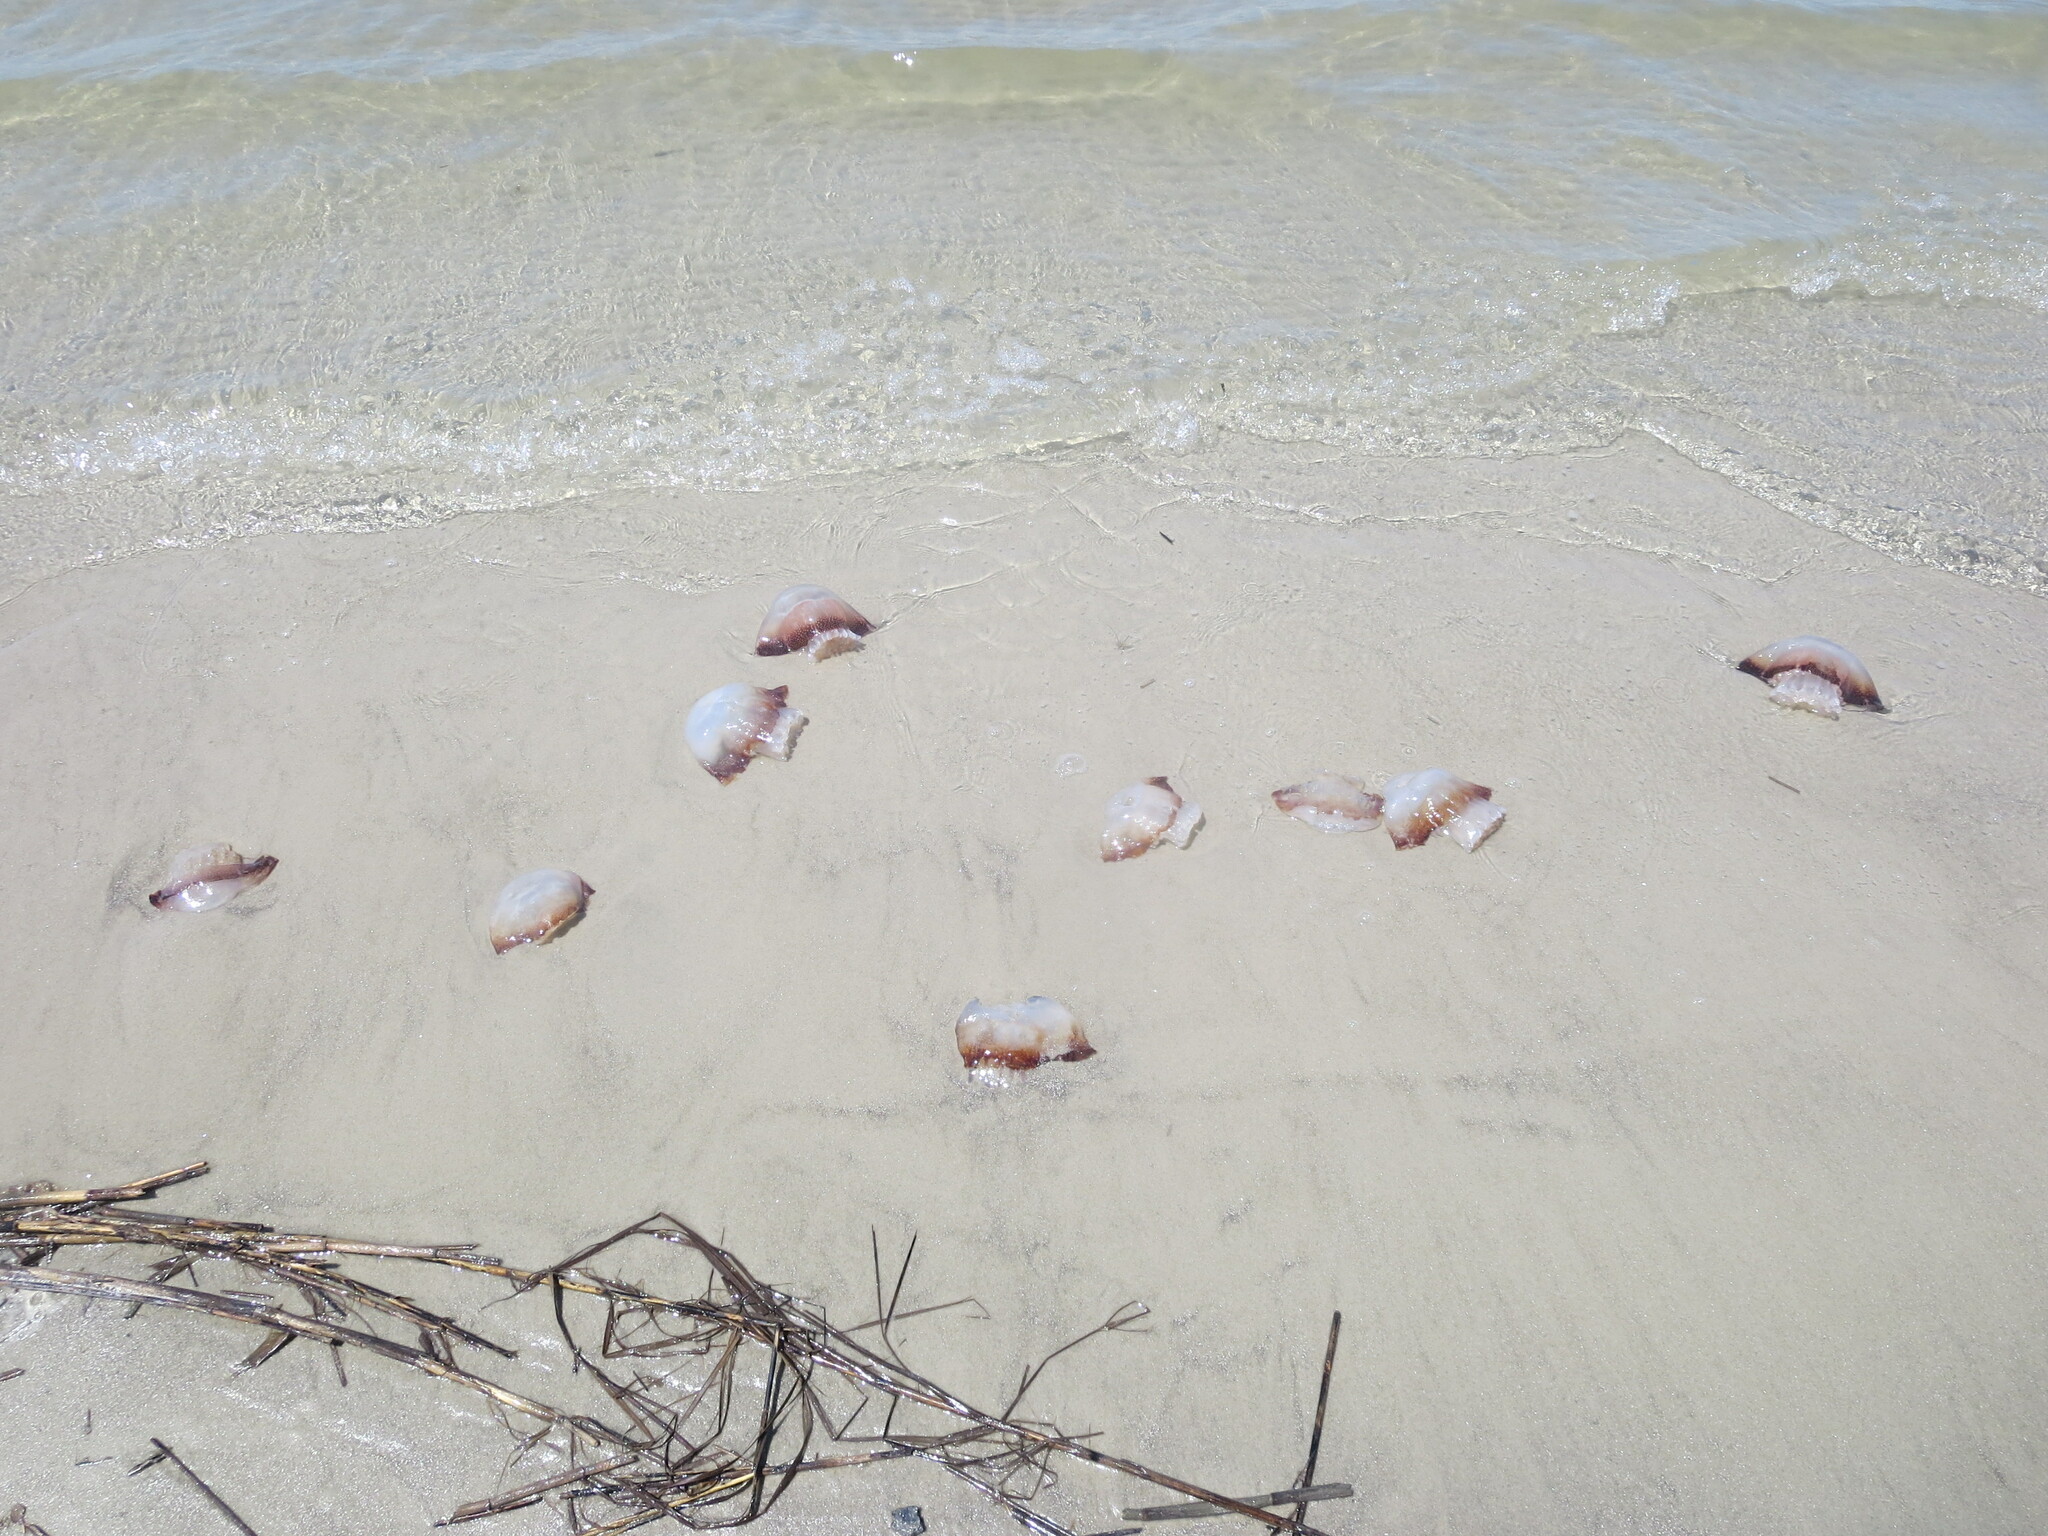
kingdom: Animalia
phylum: Cnidaria
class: Scyphozoa
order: Rhizostomeae
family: Stomolophidae
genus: Stomolophus
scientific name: Stomolophus meleagris
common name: Cabbagehead
